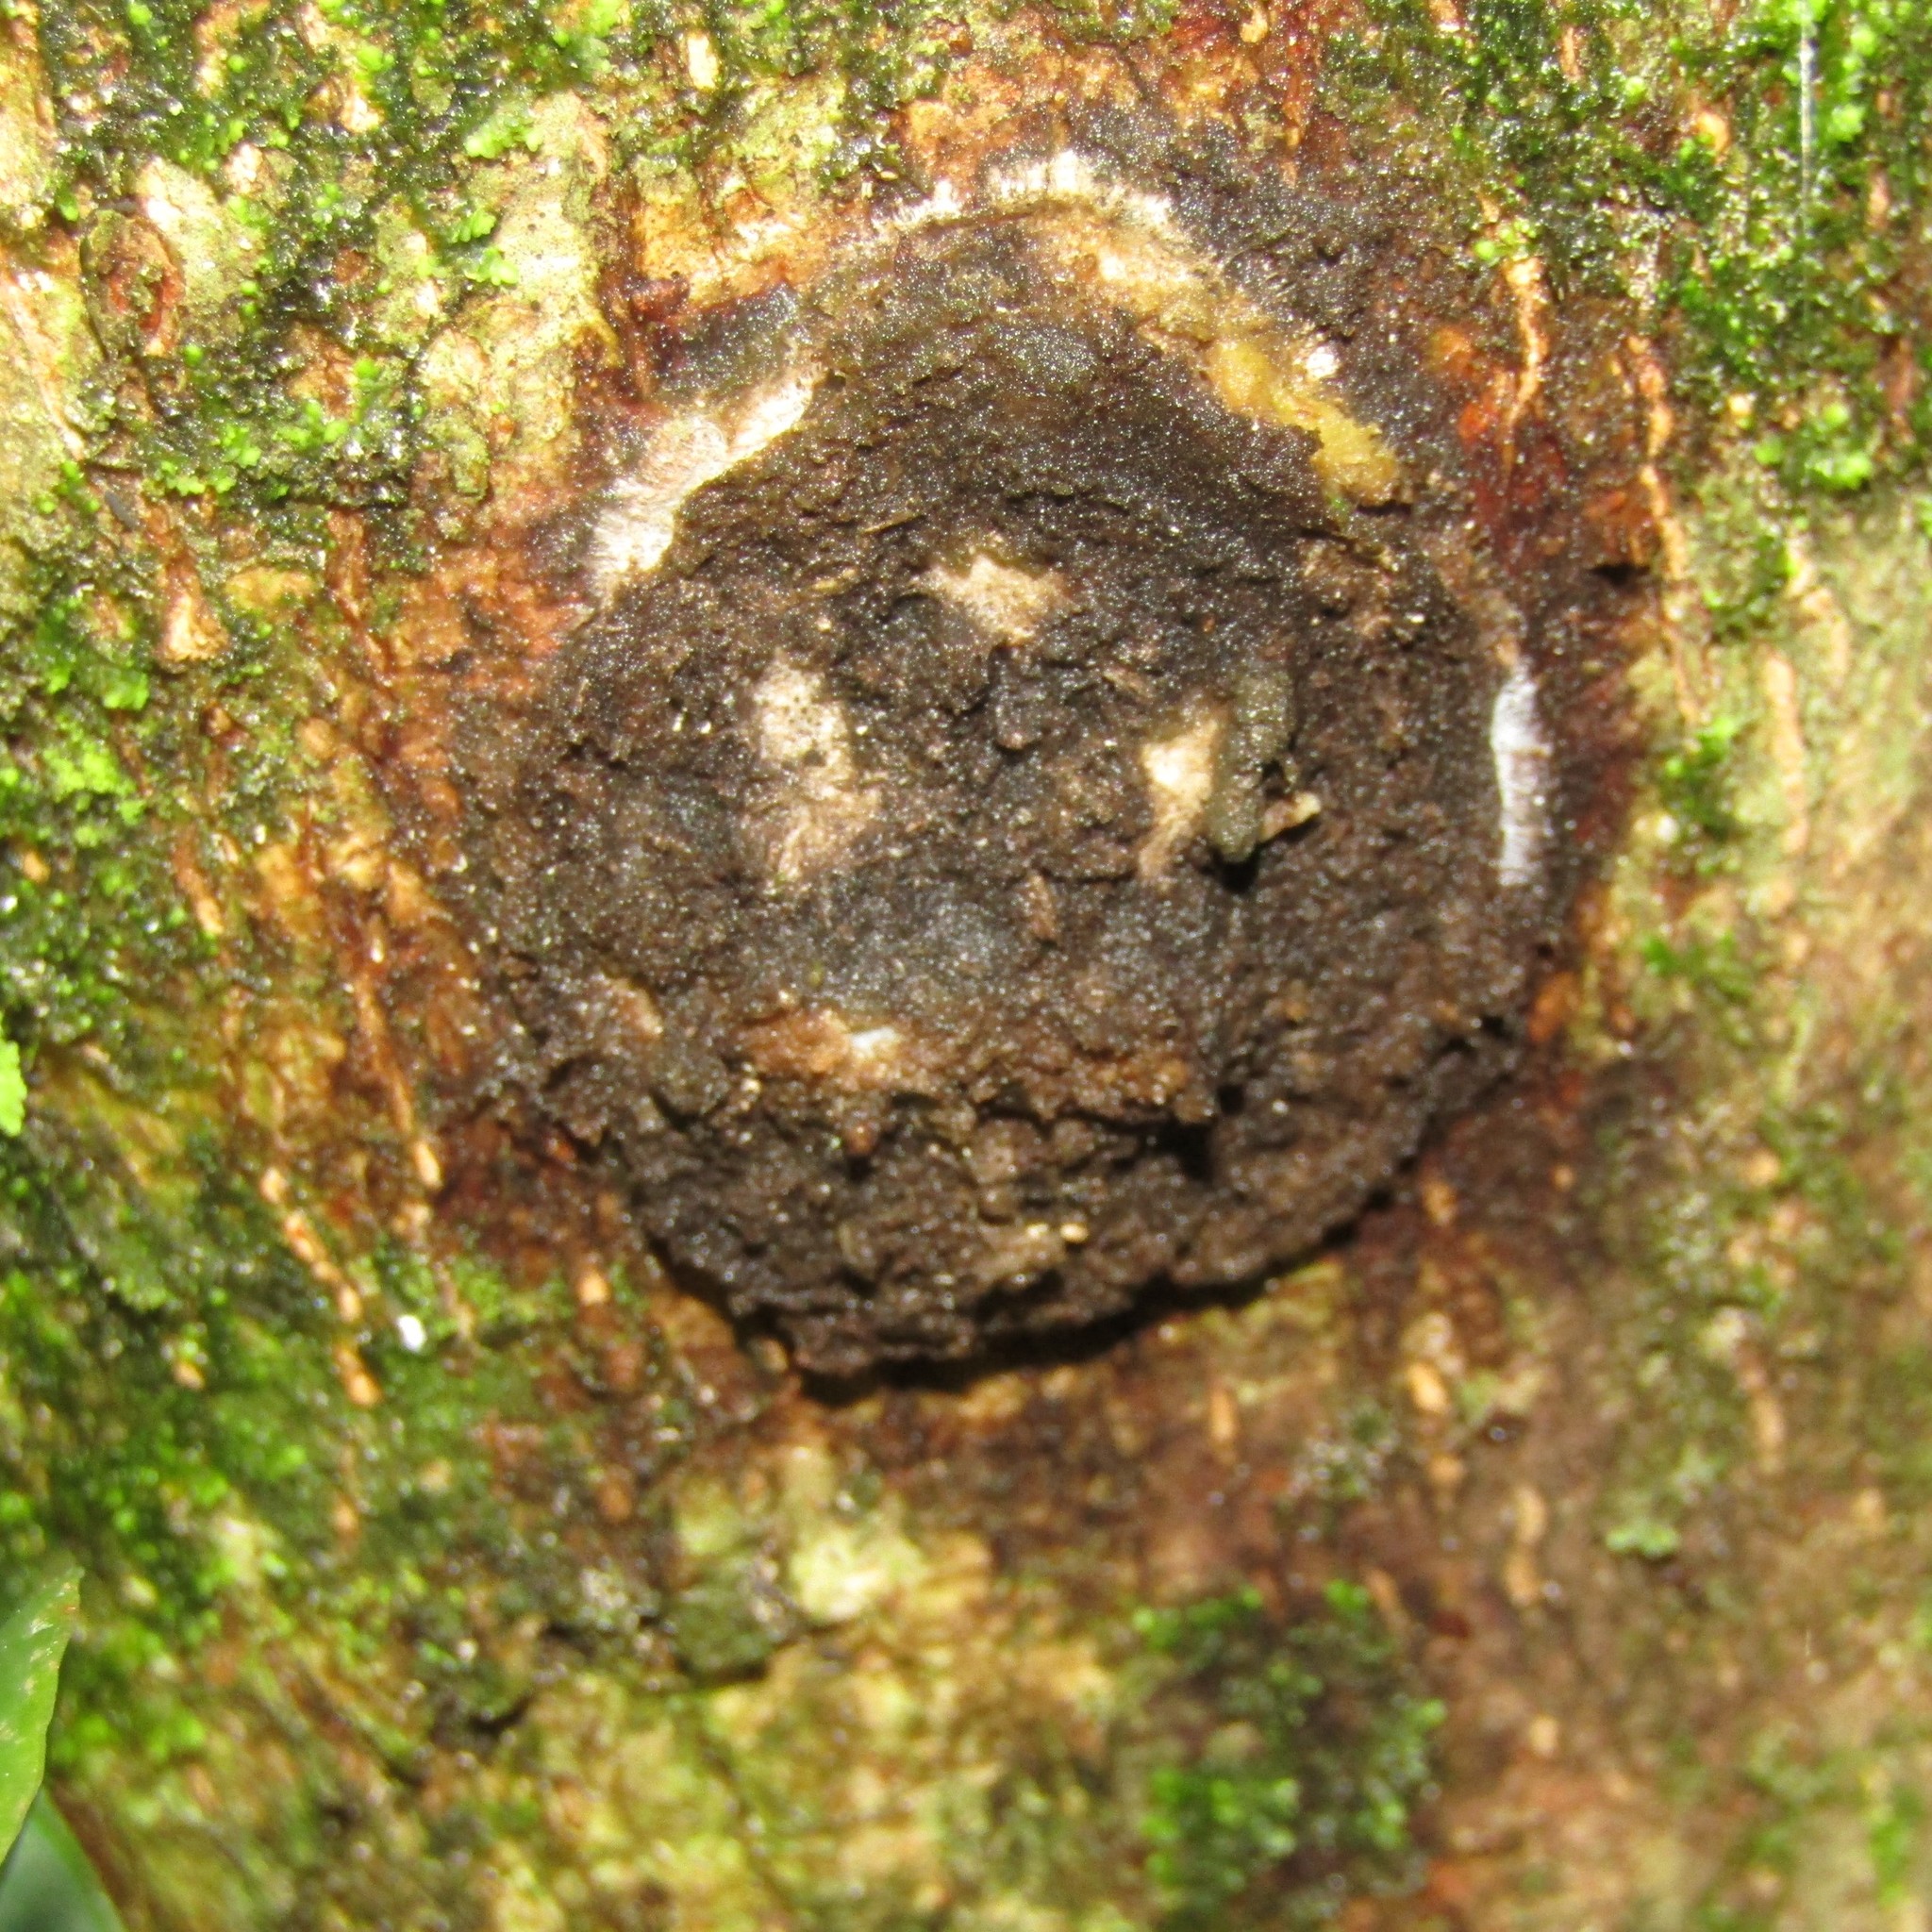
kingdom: Animalia
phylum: Arthropoda
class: Insecta
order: Lepidoptera
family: Hepialidae
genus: Aenetus
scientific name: Aenetus virescens
